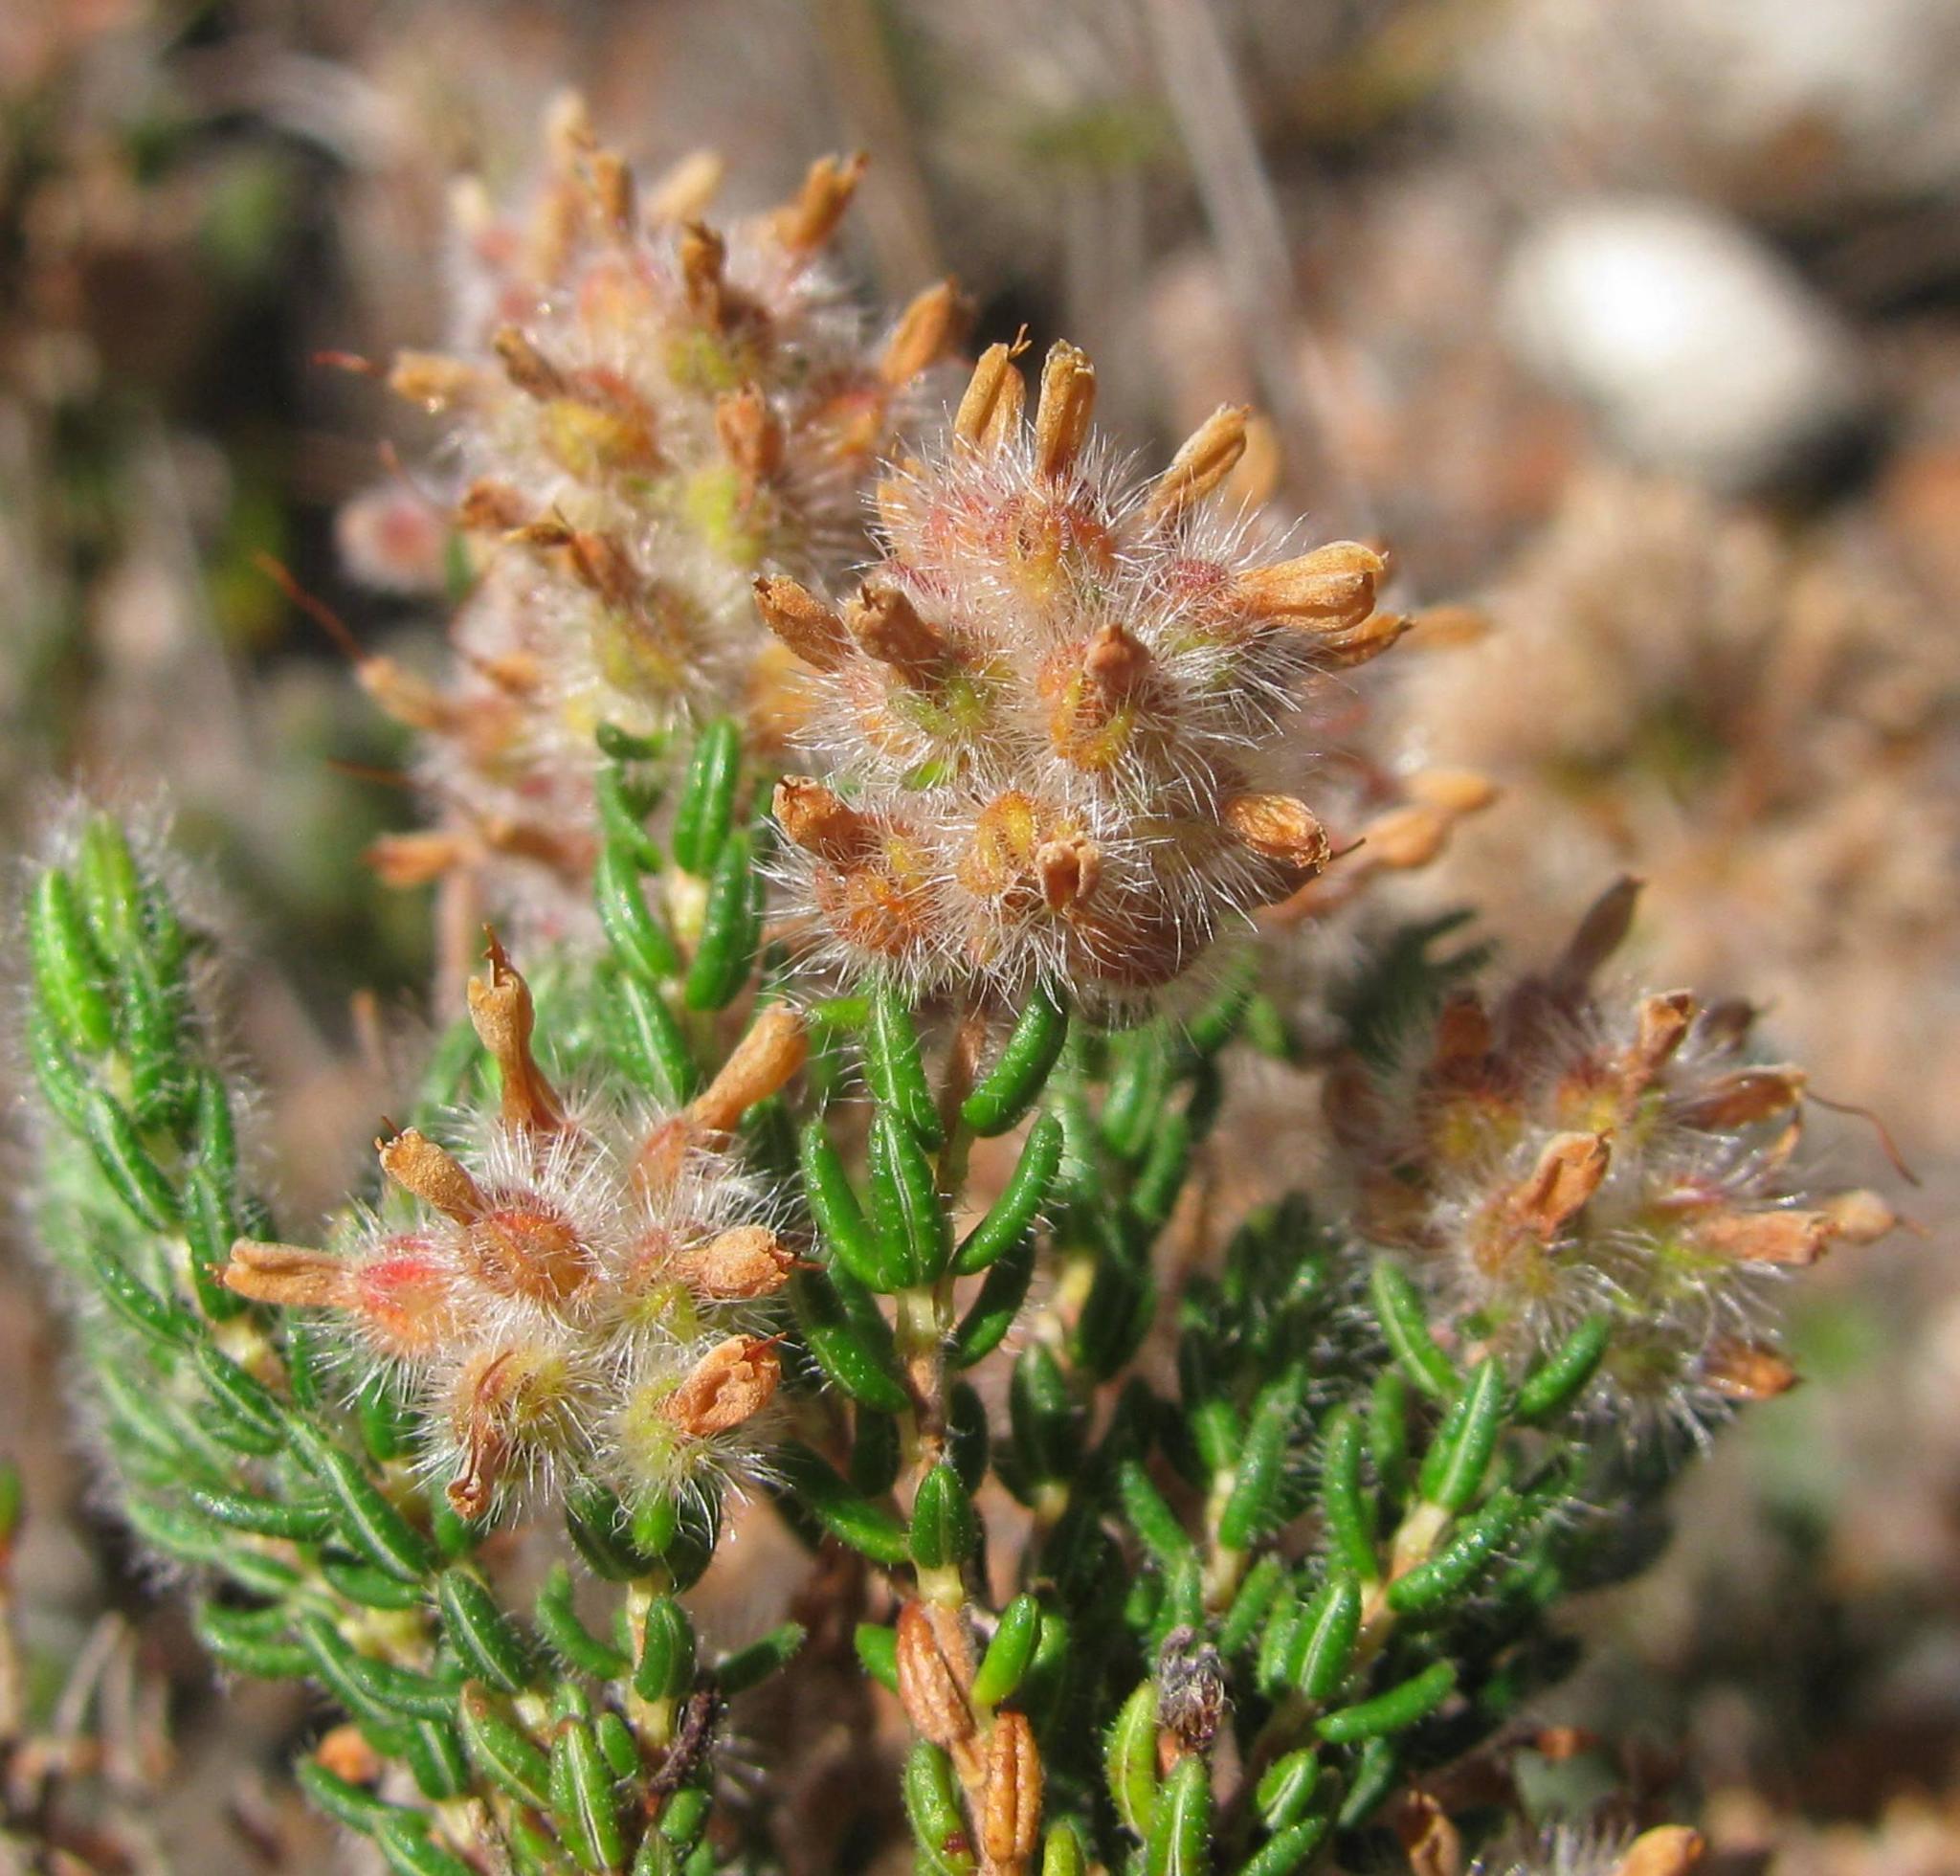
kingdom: Plantae
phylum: Tracheophyta
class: Magnoliopsida
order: Ericales
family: Ericaceae
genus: Erica
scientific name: Erica eriocephala
